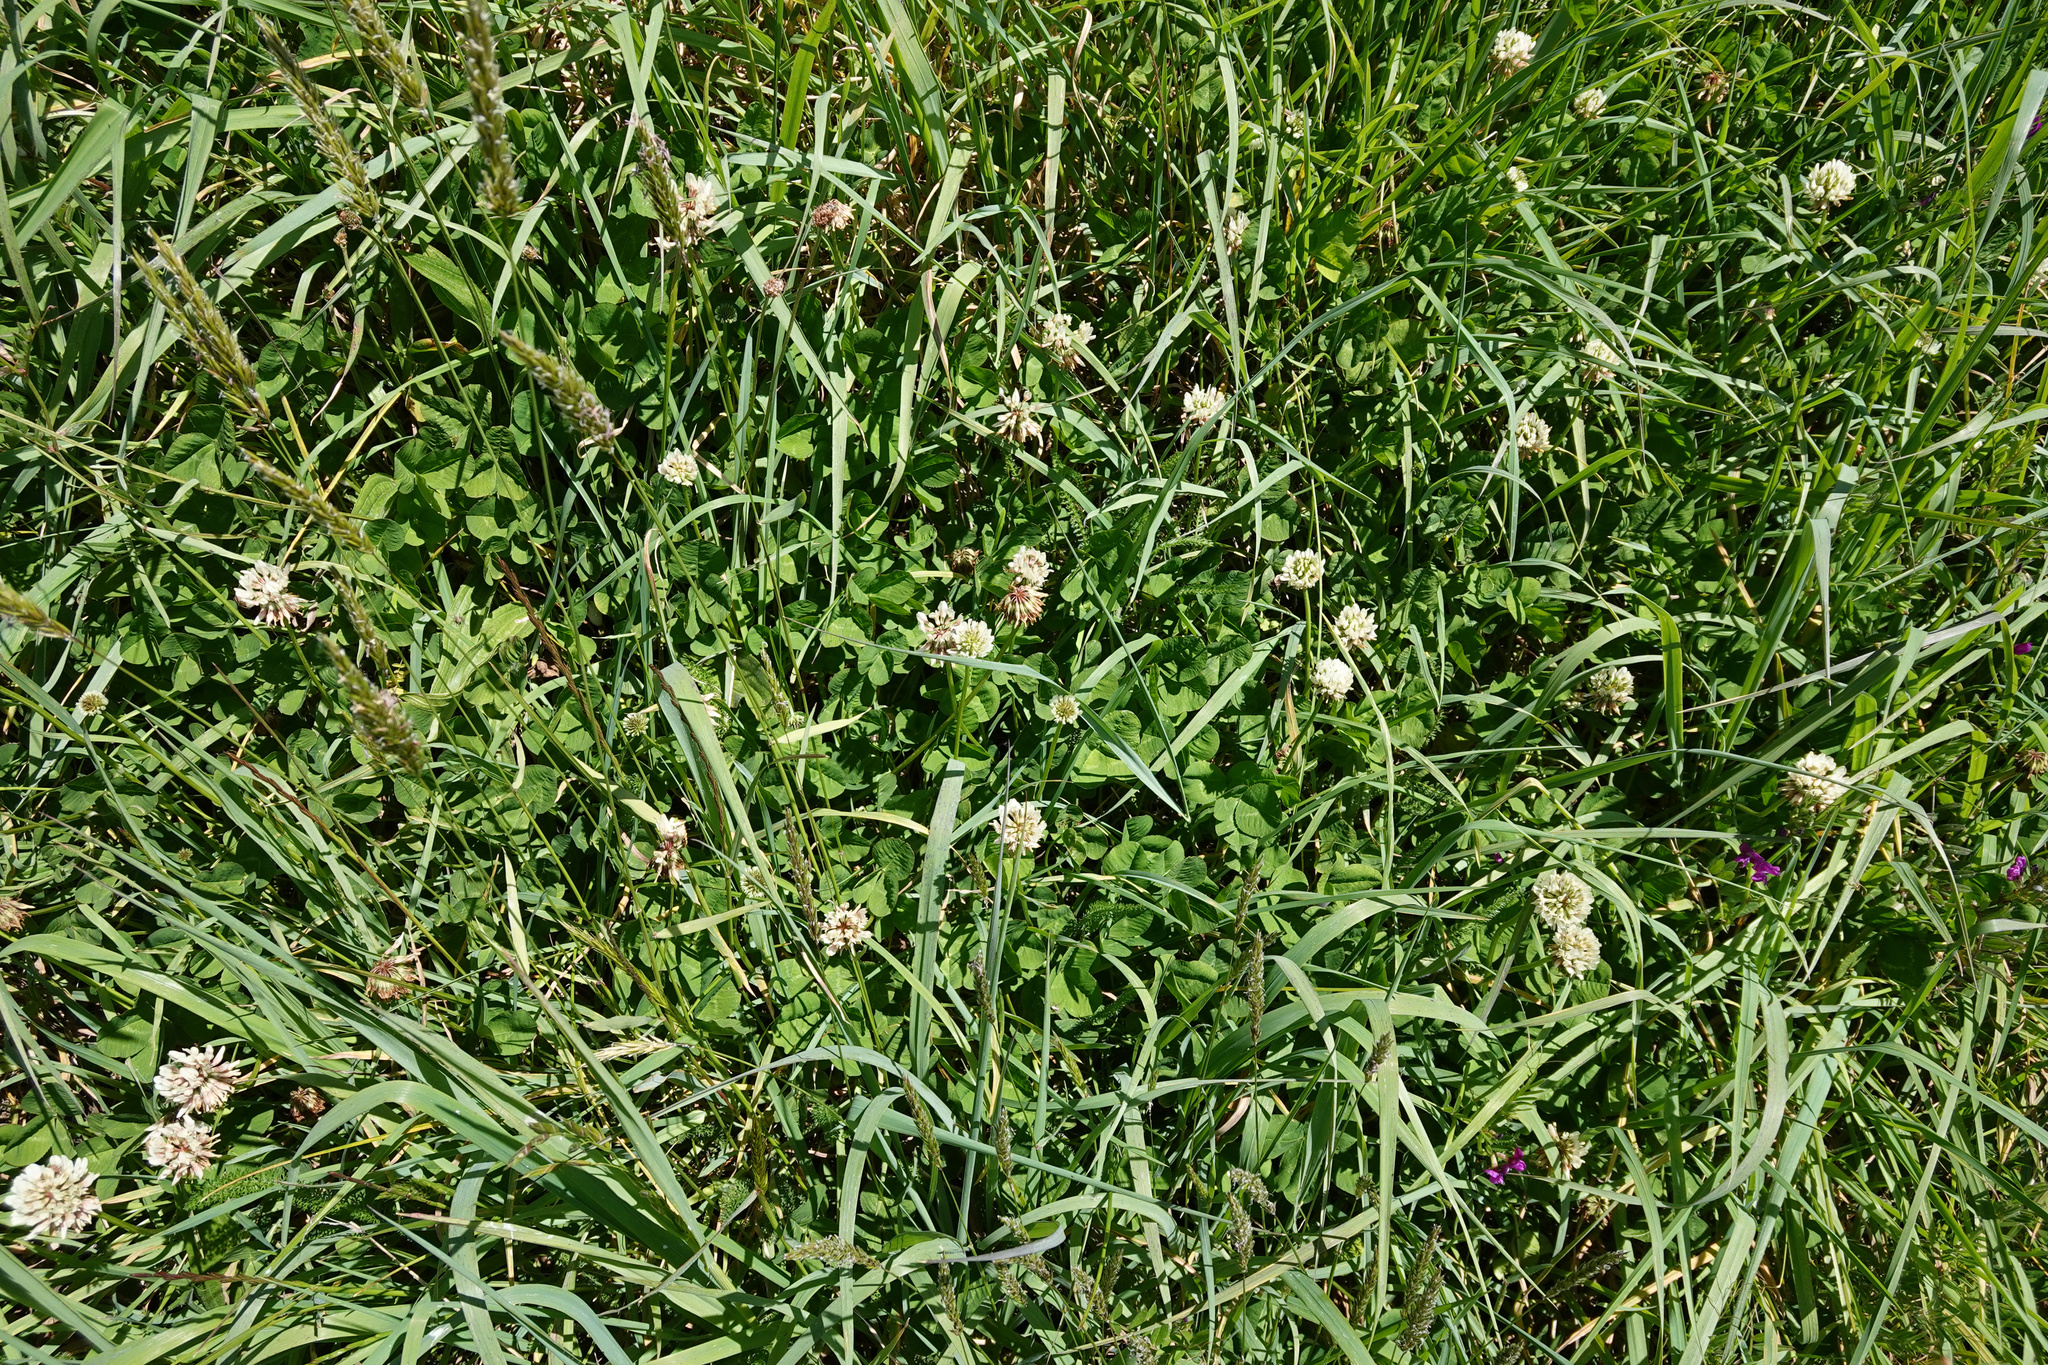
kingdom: Plantae
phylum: Tracheophyta
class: Magnoliopsida
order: Fabales
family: Fabaceae
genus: Trifolium
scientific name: Trifolium repens
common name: White clover
